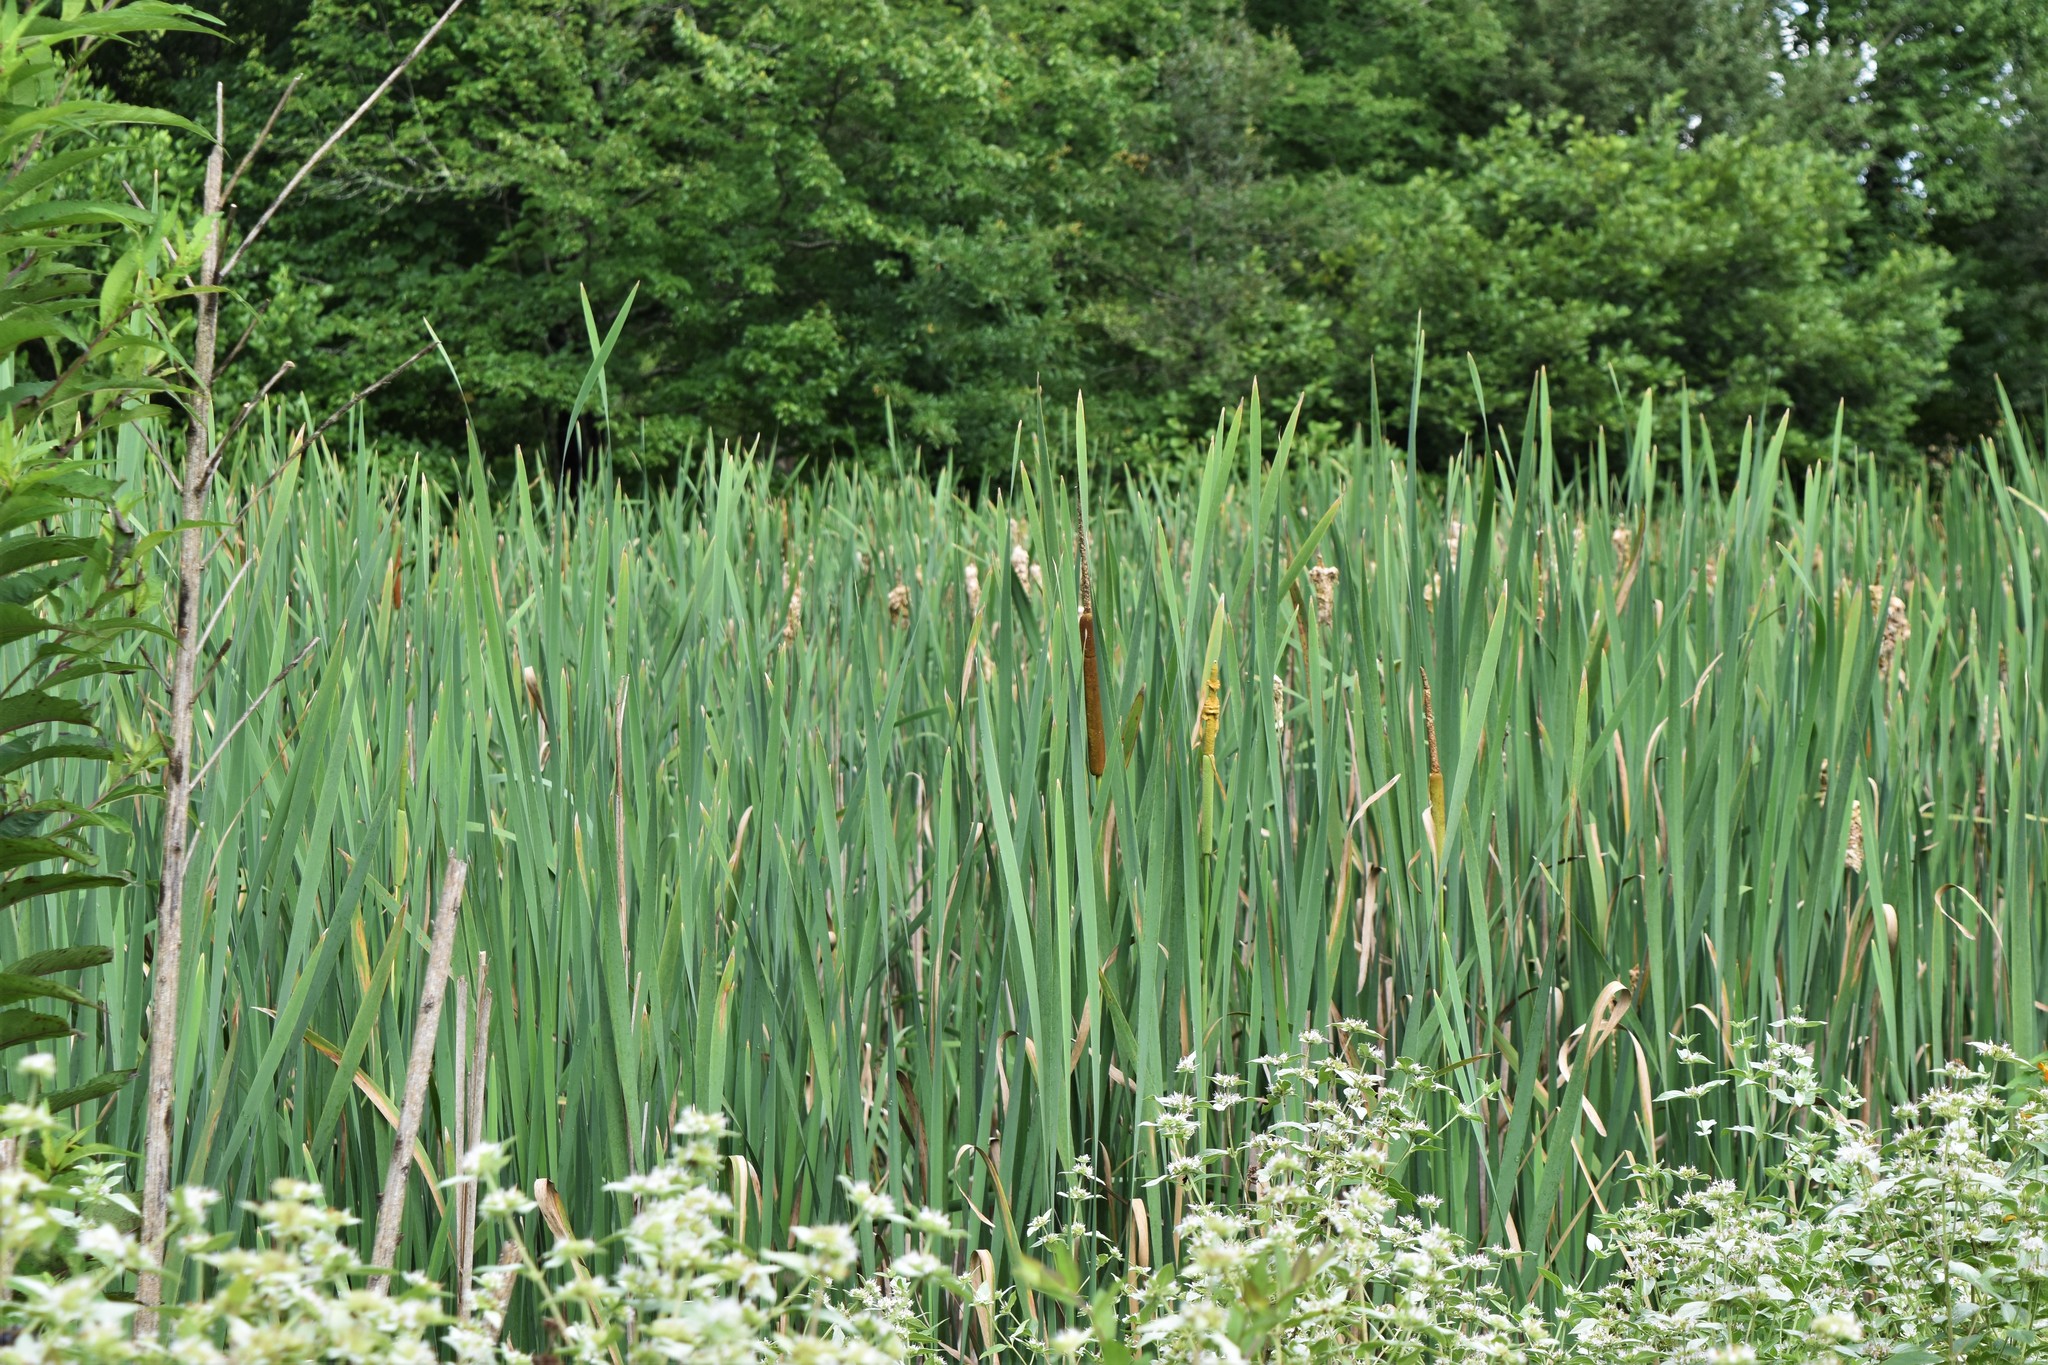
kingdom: Plantae
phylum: Tracheophyta
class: Liliopsida
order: Poales
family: Typhaceae
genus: Typha
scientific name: Typha latifolia
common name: Broadleaf cattail
